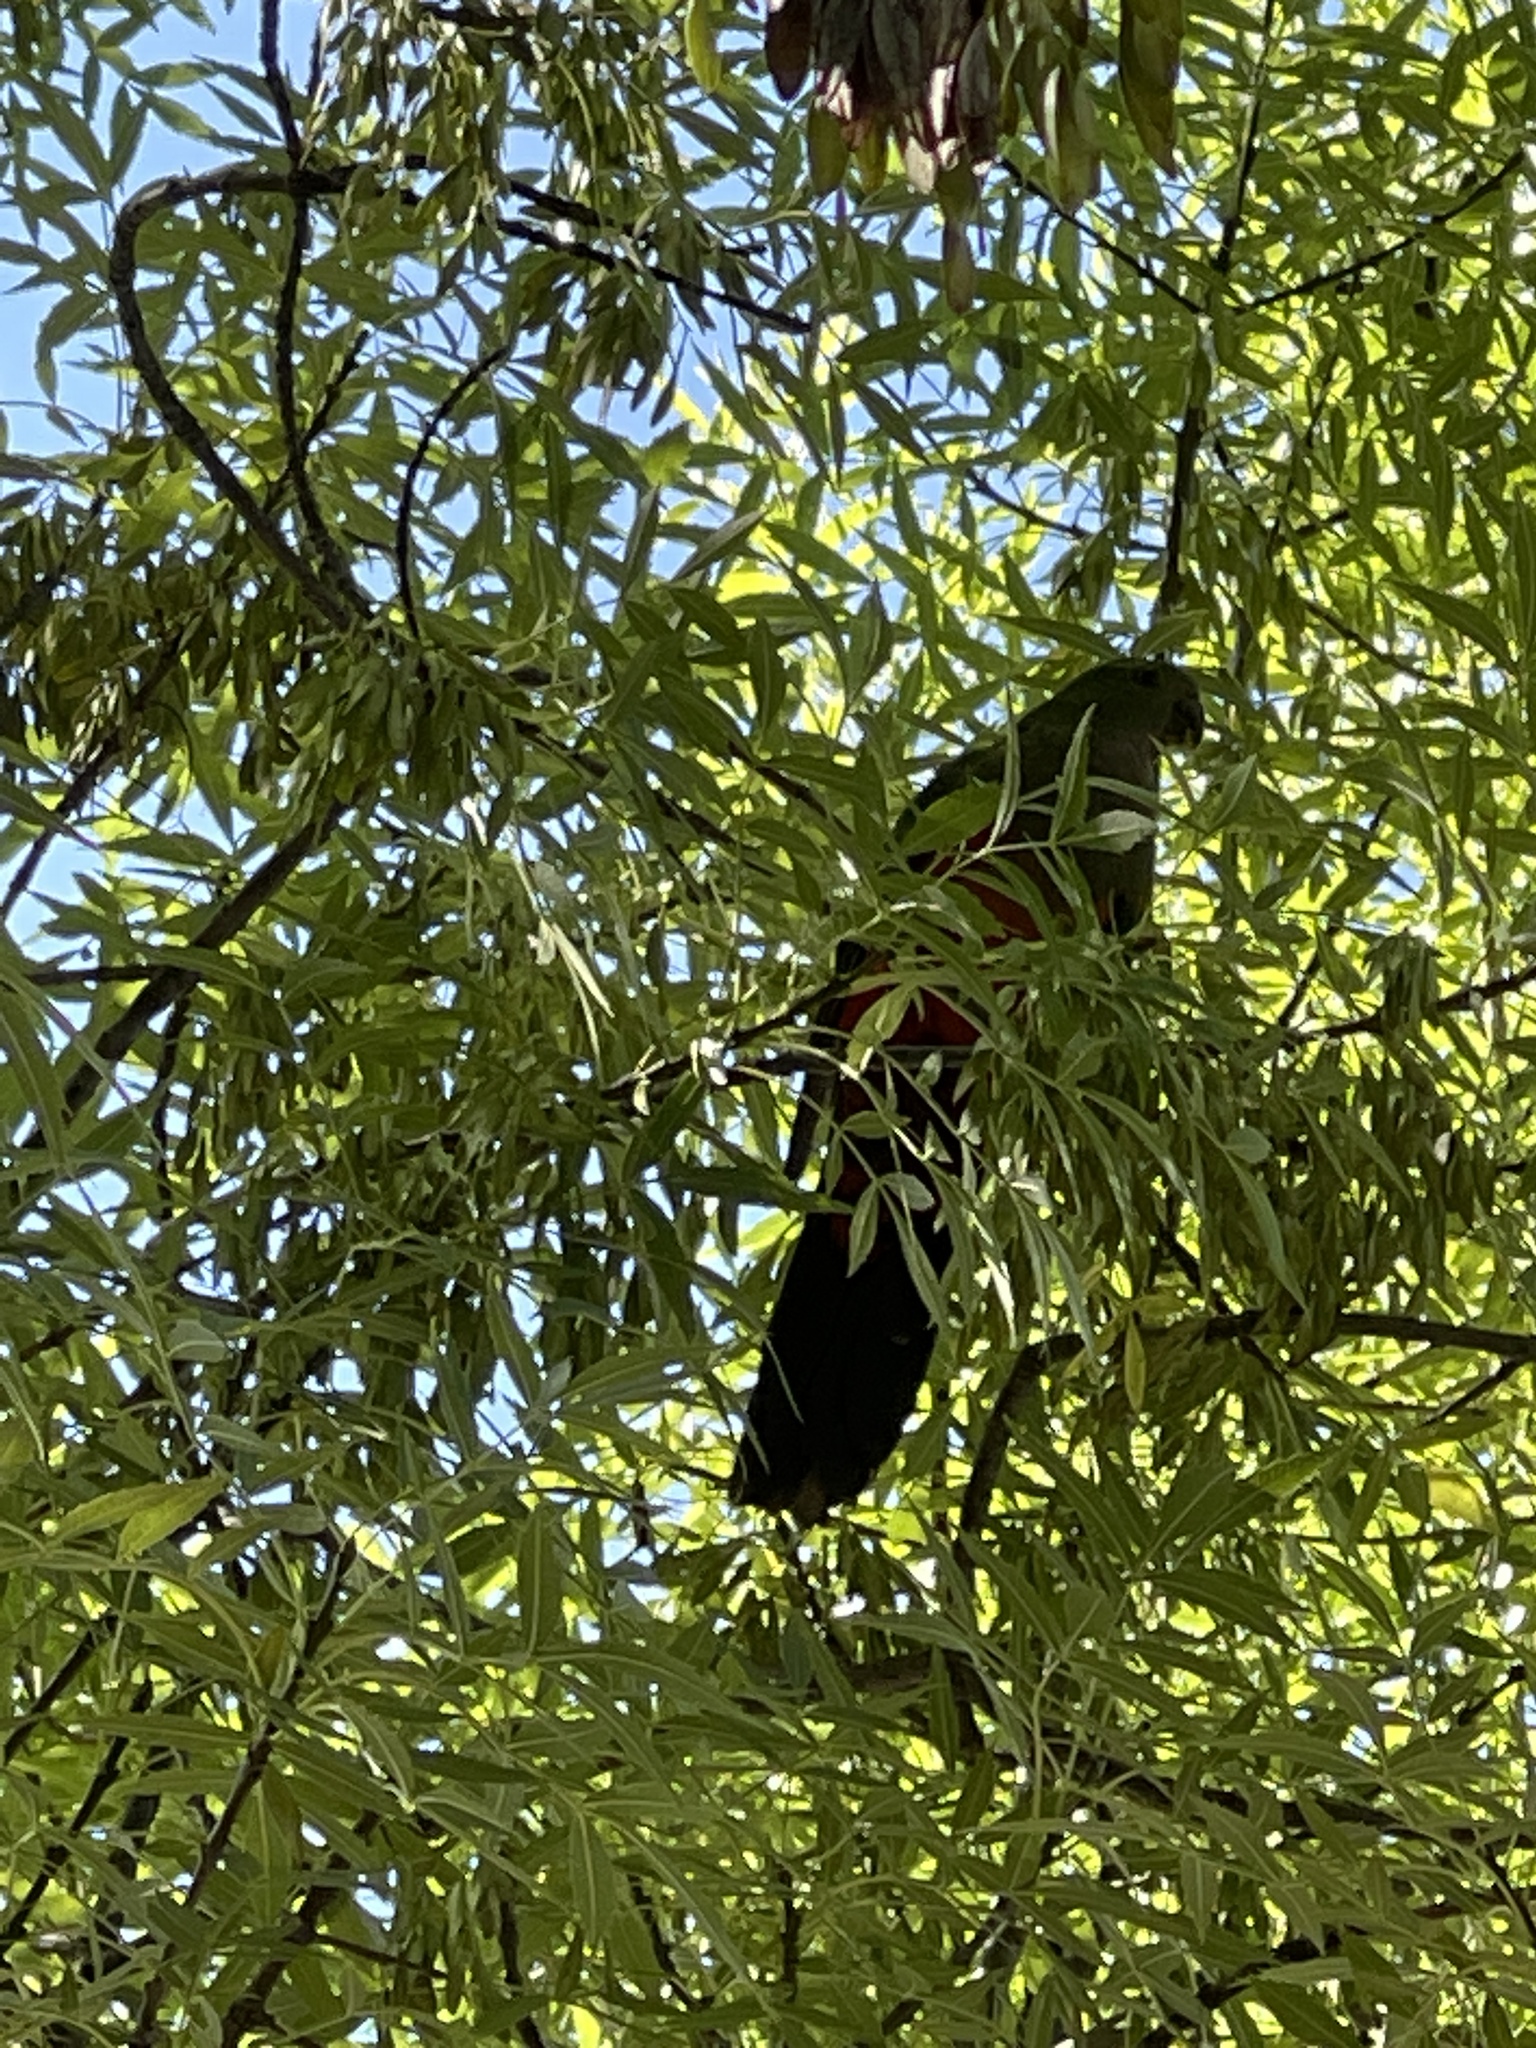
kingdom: Animalia
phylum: Chordata
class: Aves
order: Psittaciformes
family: Psittacidae
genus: Alisterus
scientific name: Alisterus scapularis
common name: Australian king parrot
